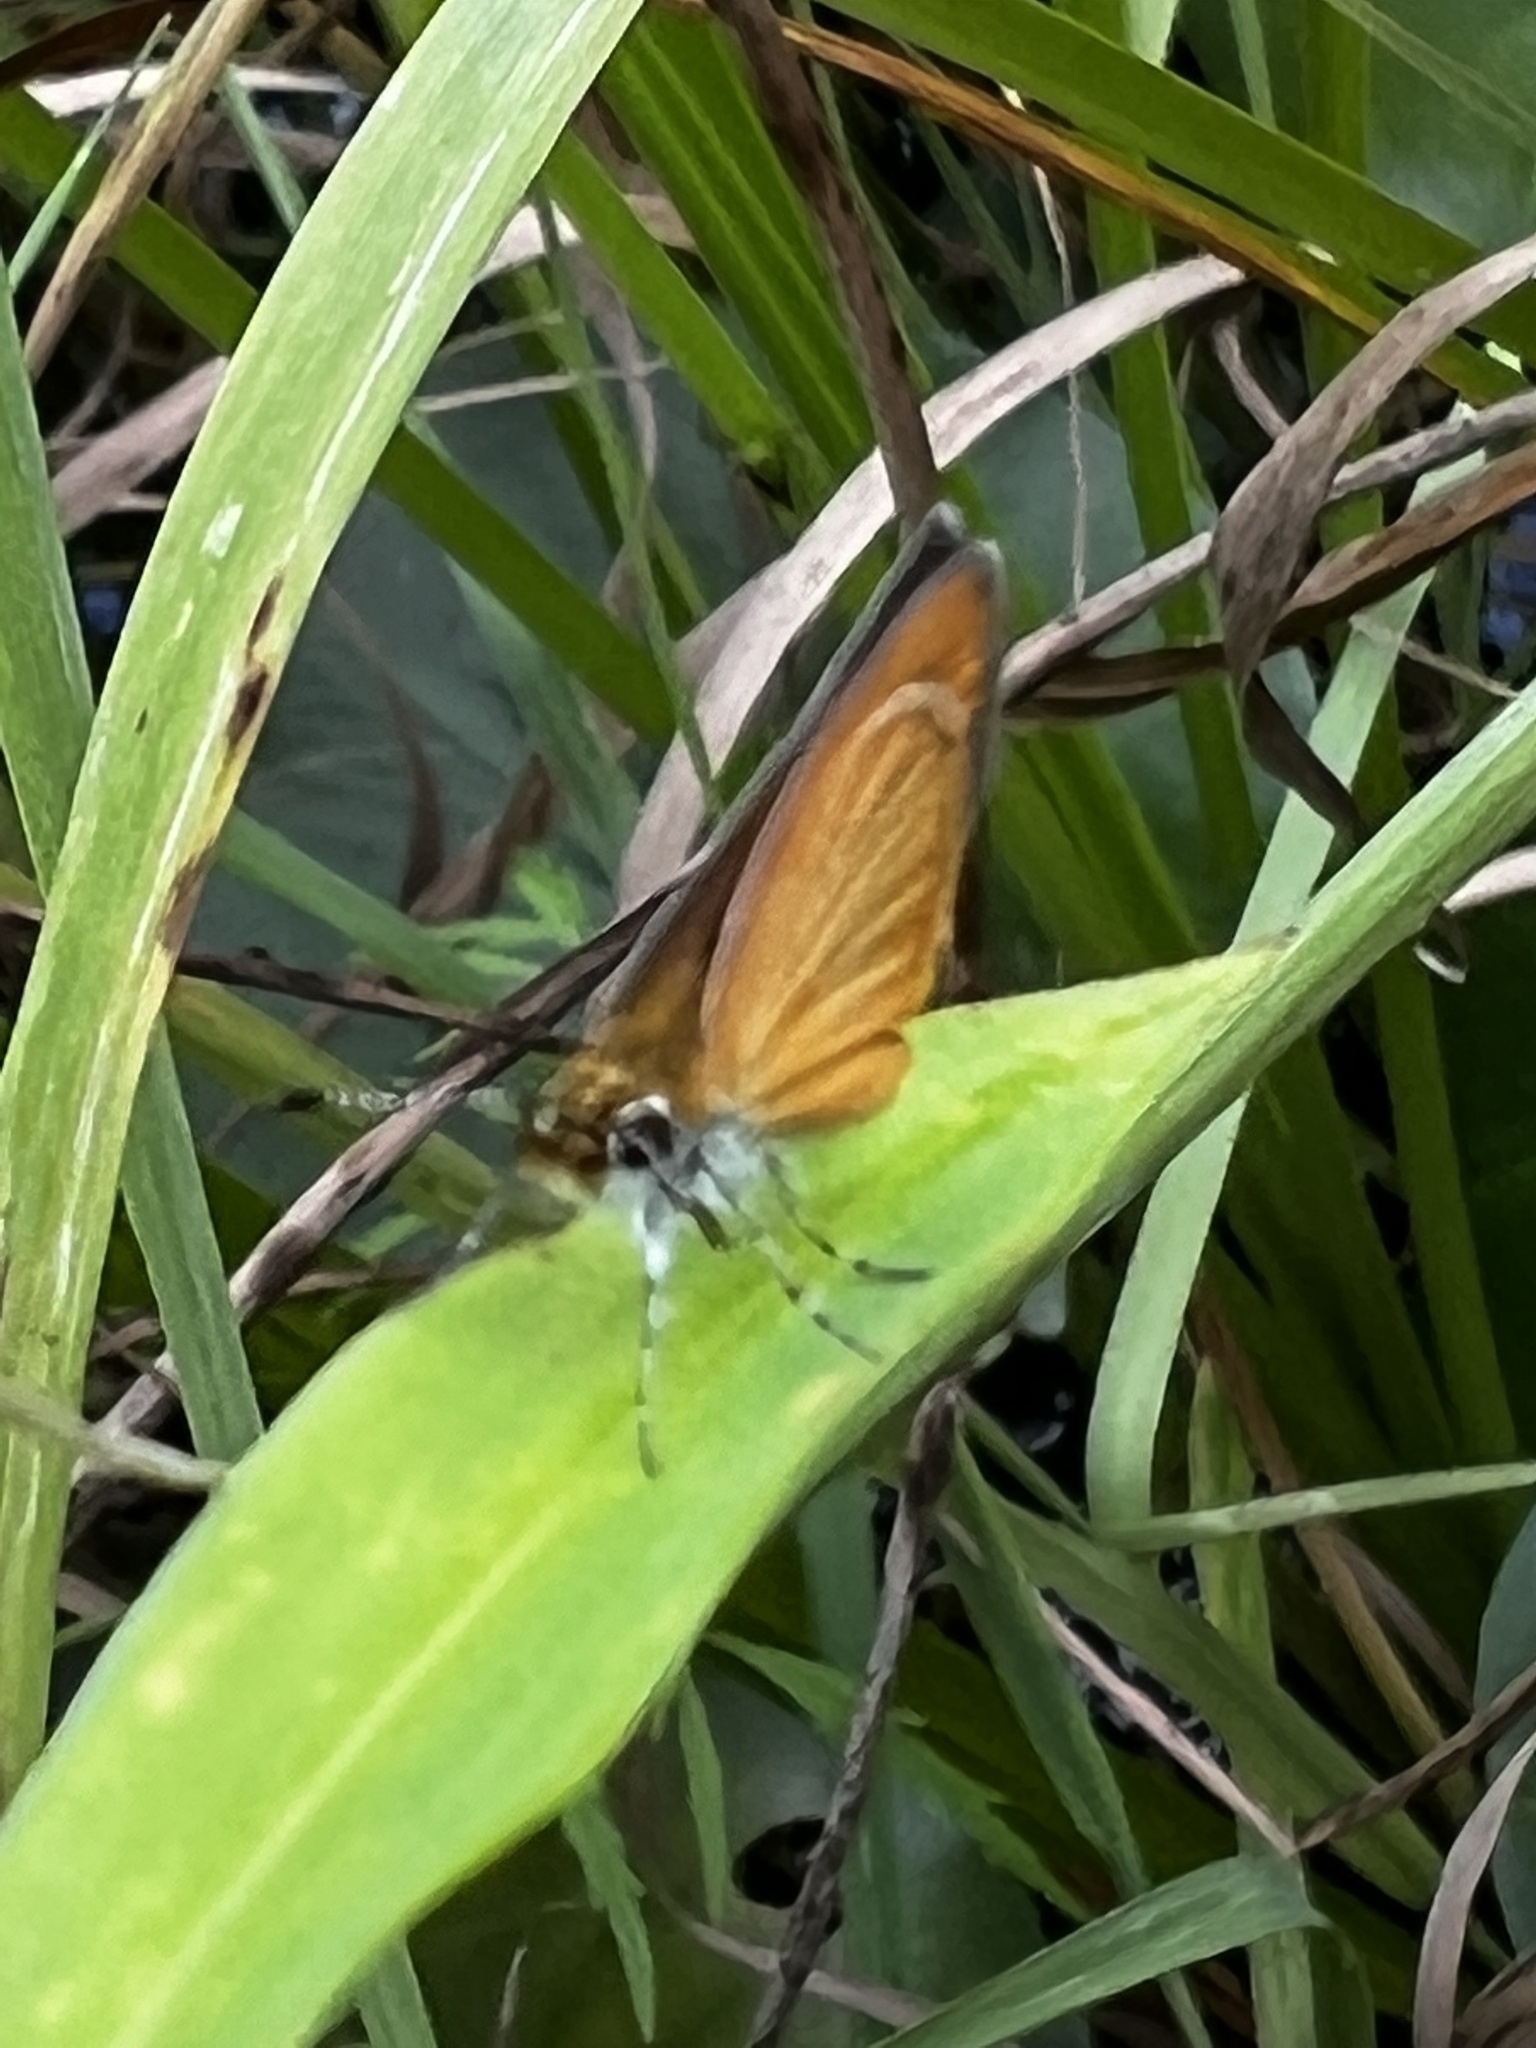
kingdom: Animalia
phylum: Arthropoda
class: Insecta
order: Lepidoptera
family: Hesperiidae
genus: Ancyloxypha
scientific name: Ancyloxypha numitor
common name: Least skipper
